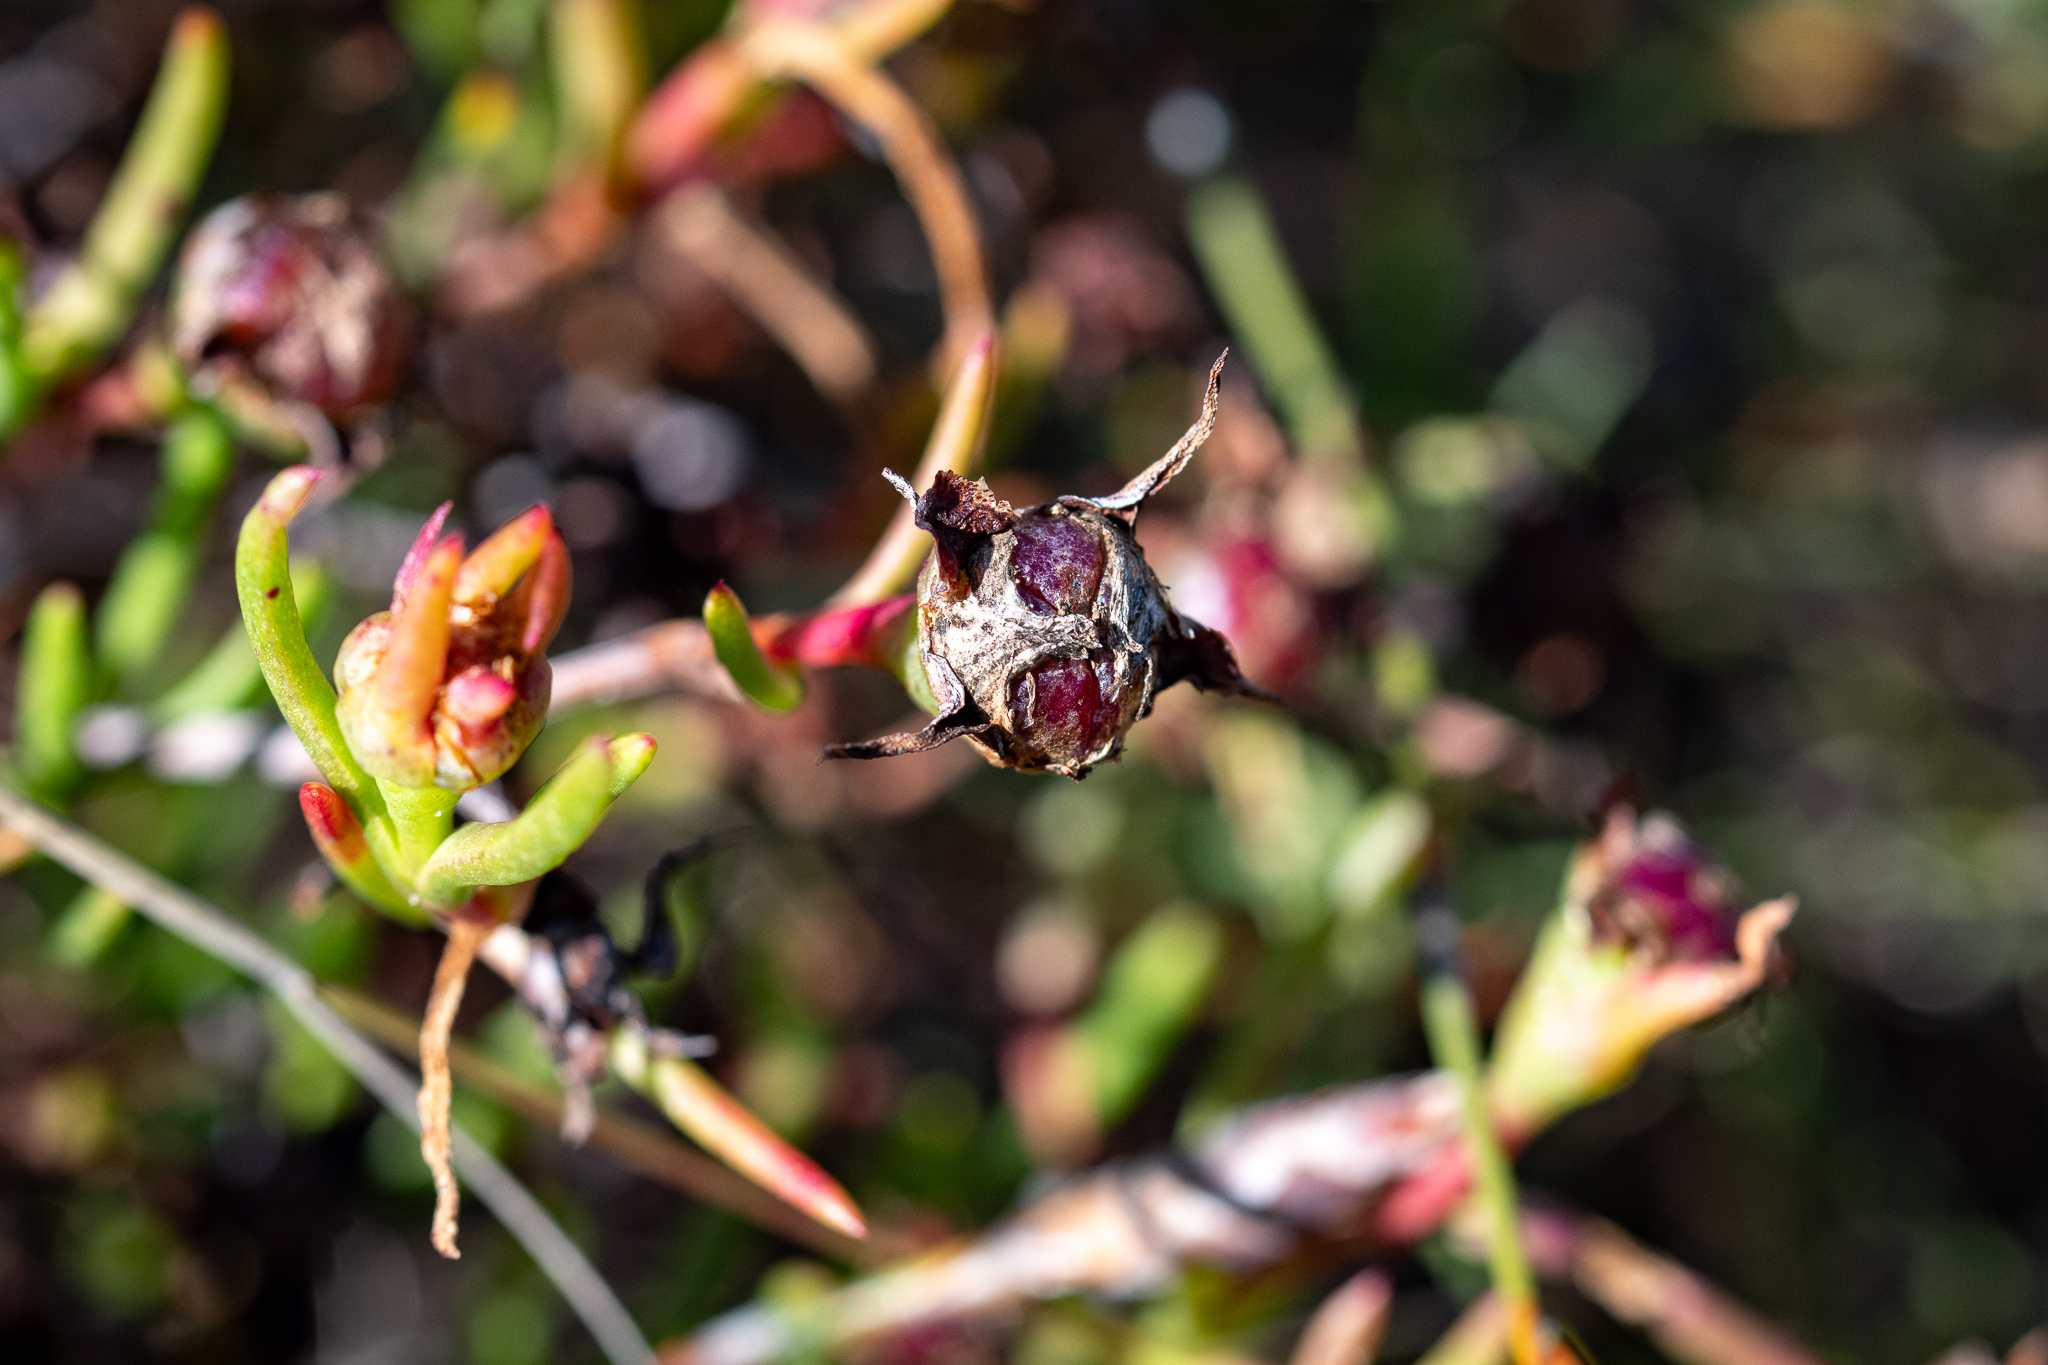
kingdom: Plantae
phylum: Tracheophyta
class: Magnoliopsida
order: Caryophyllales
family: Aizoaceae
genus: Lampranthus
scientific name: Lampranthus bicolor
